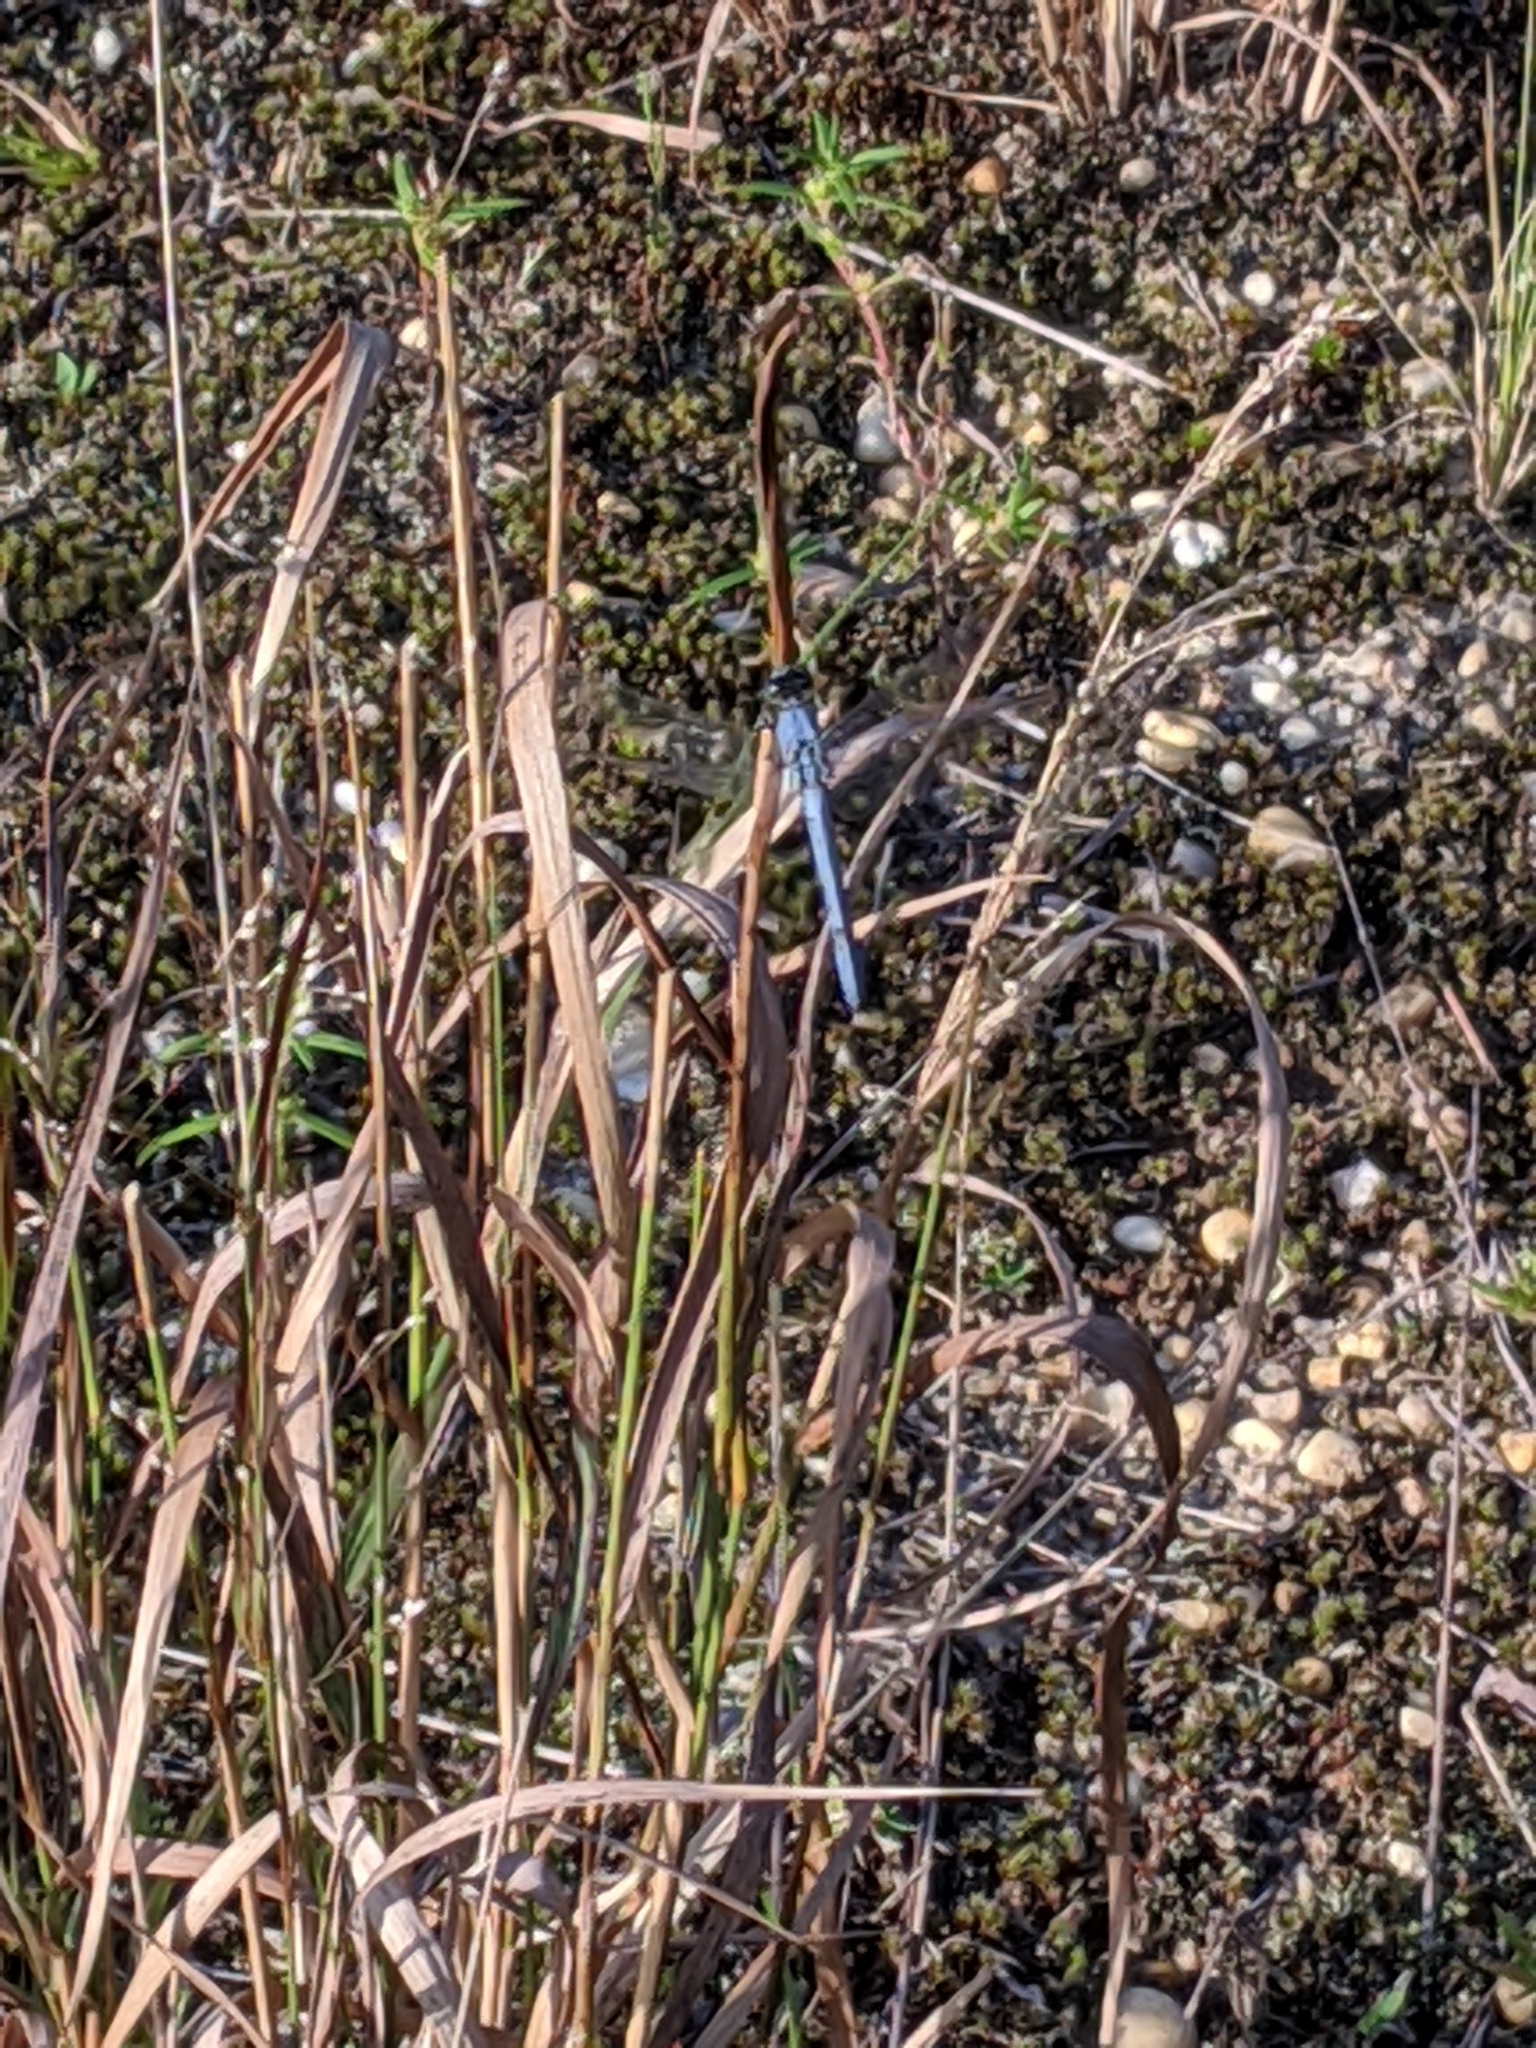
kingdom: Animalia
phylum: Arthropoda
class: Insecta
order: Odonata
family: Libellulidae
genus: Erythemis
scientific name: Erythemis simplicicollis
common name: Eastern pondhawk
